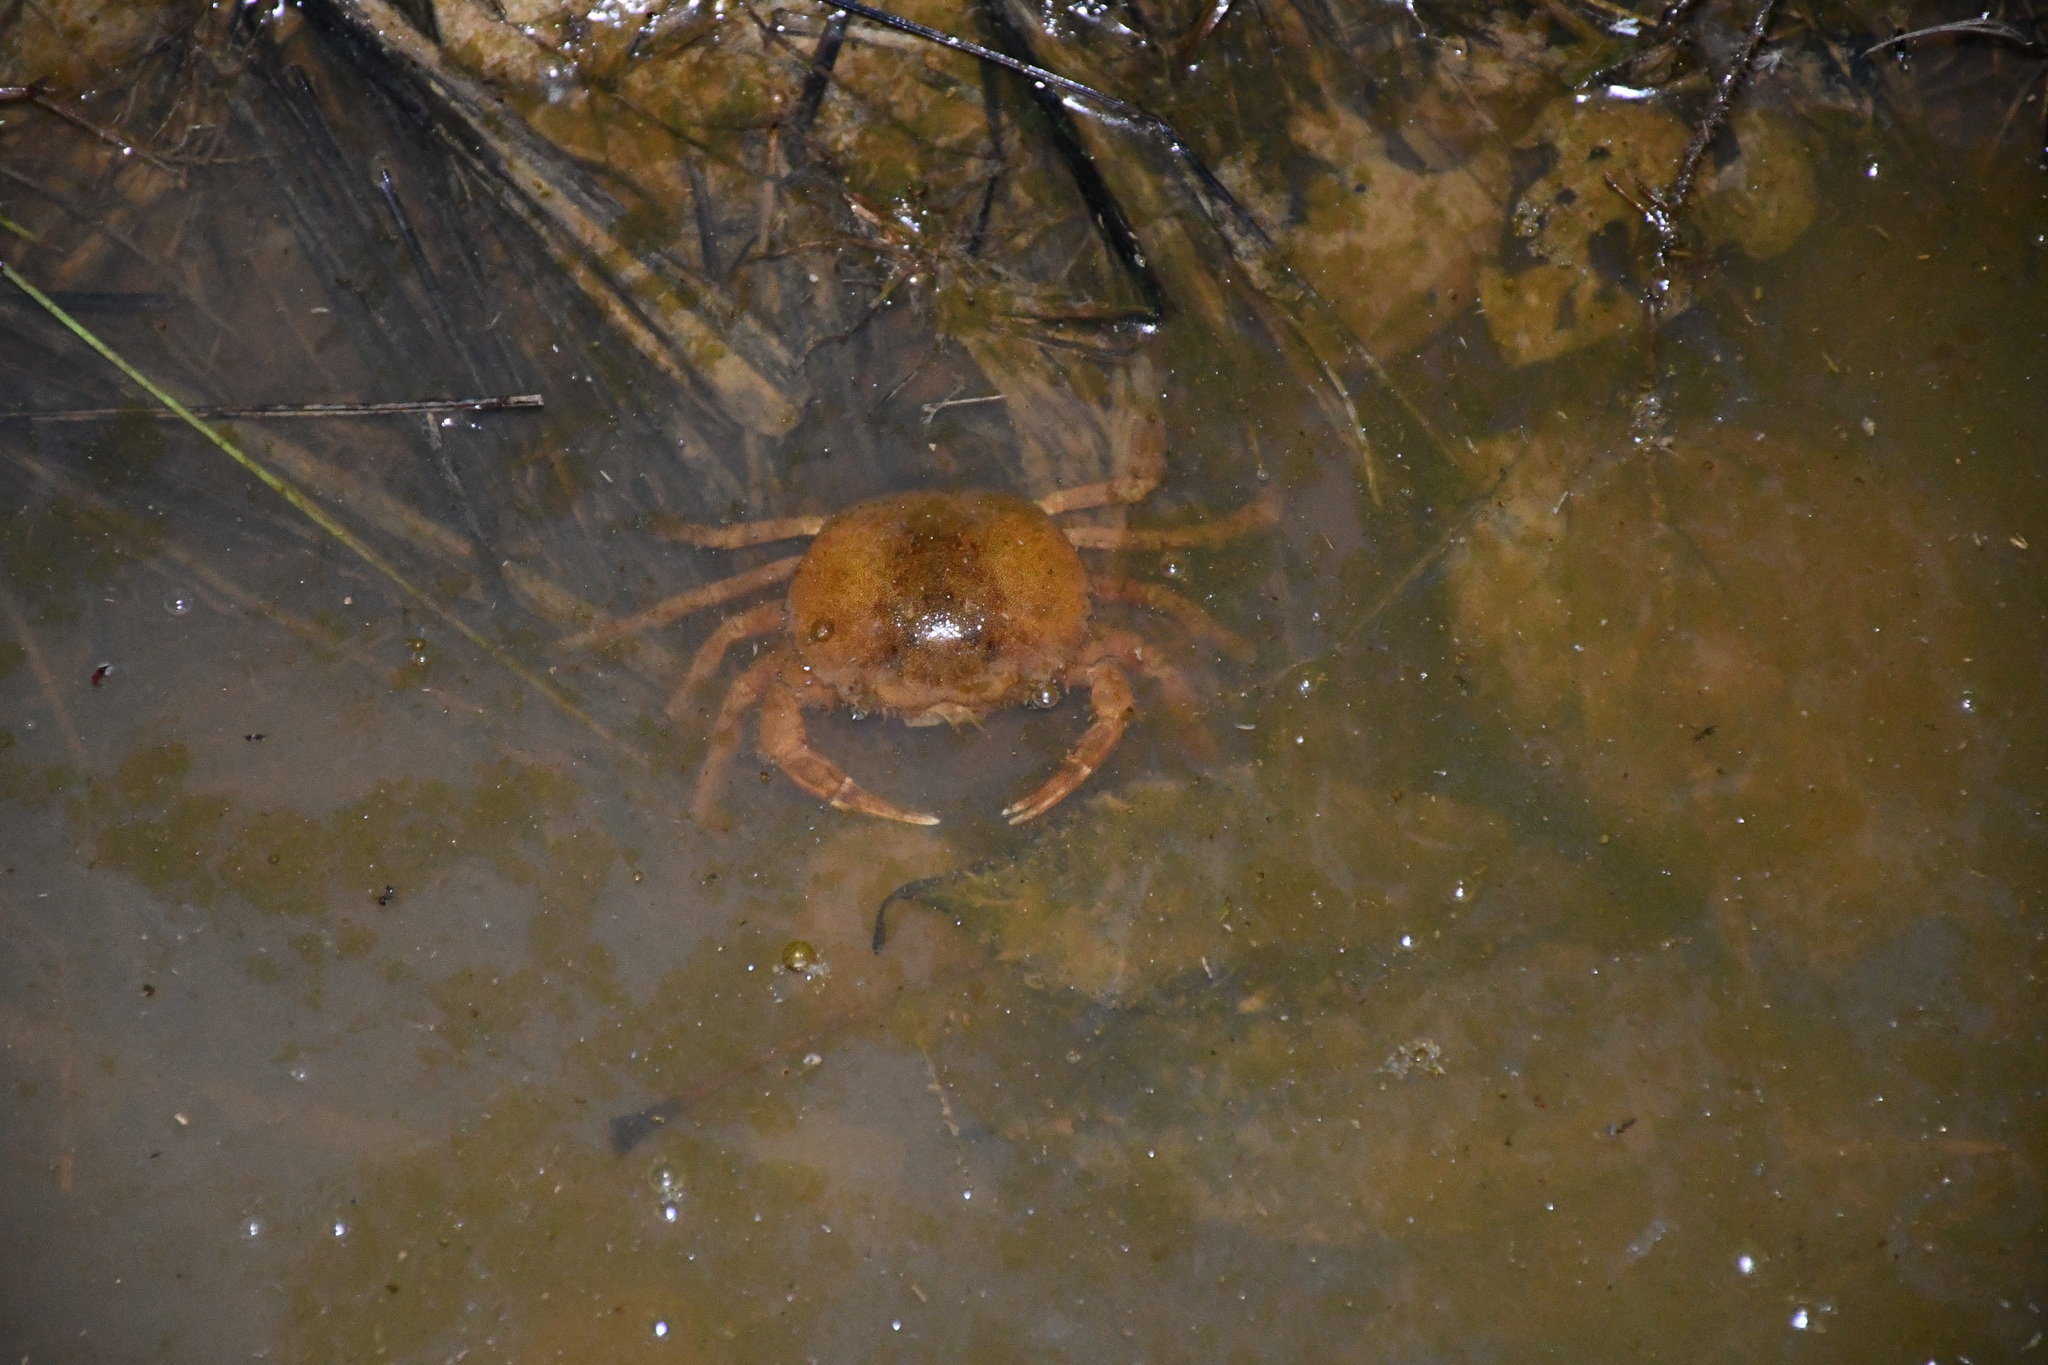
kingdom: Animalia
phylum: Arthropoda
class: Malacostraca
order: Decapoda
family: Trichodactylidae
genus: Dilocarcinus
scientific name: Dilocarcinus pagei
